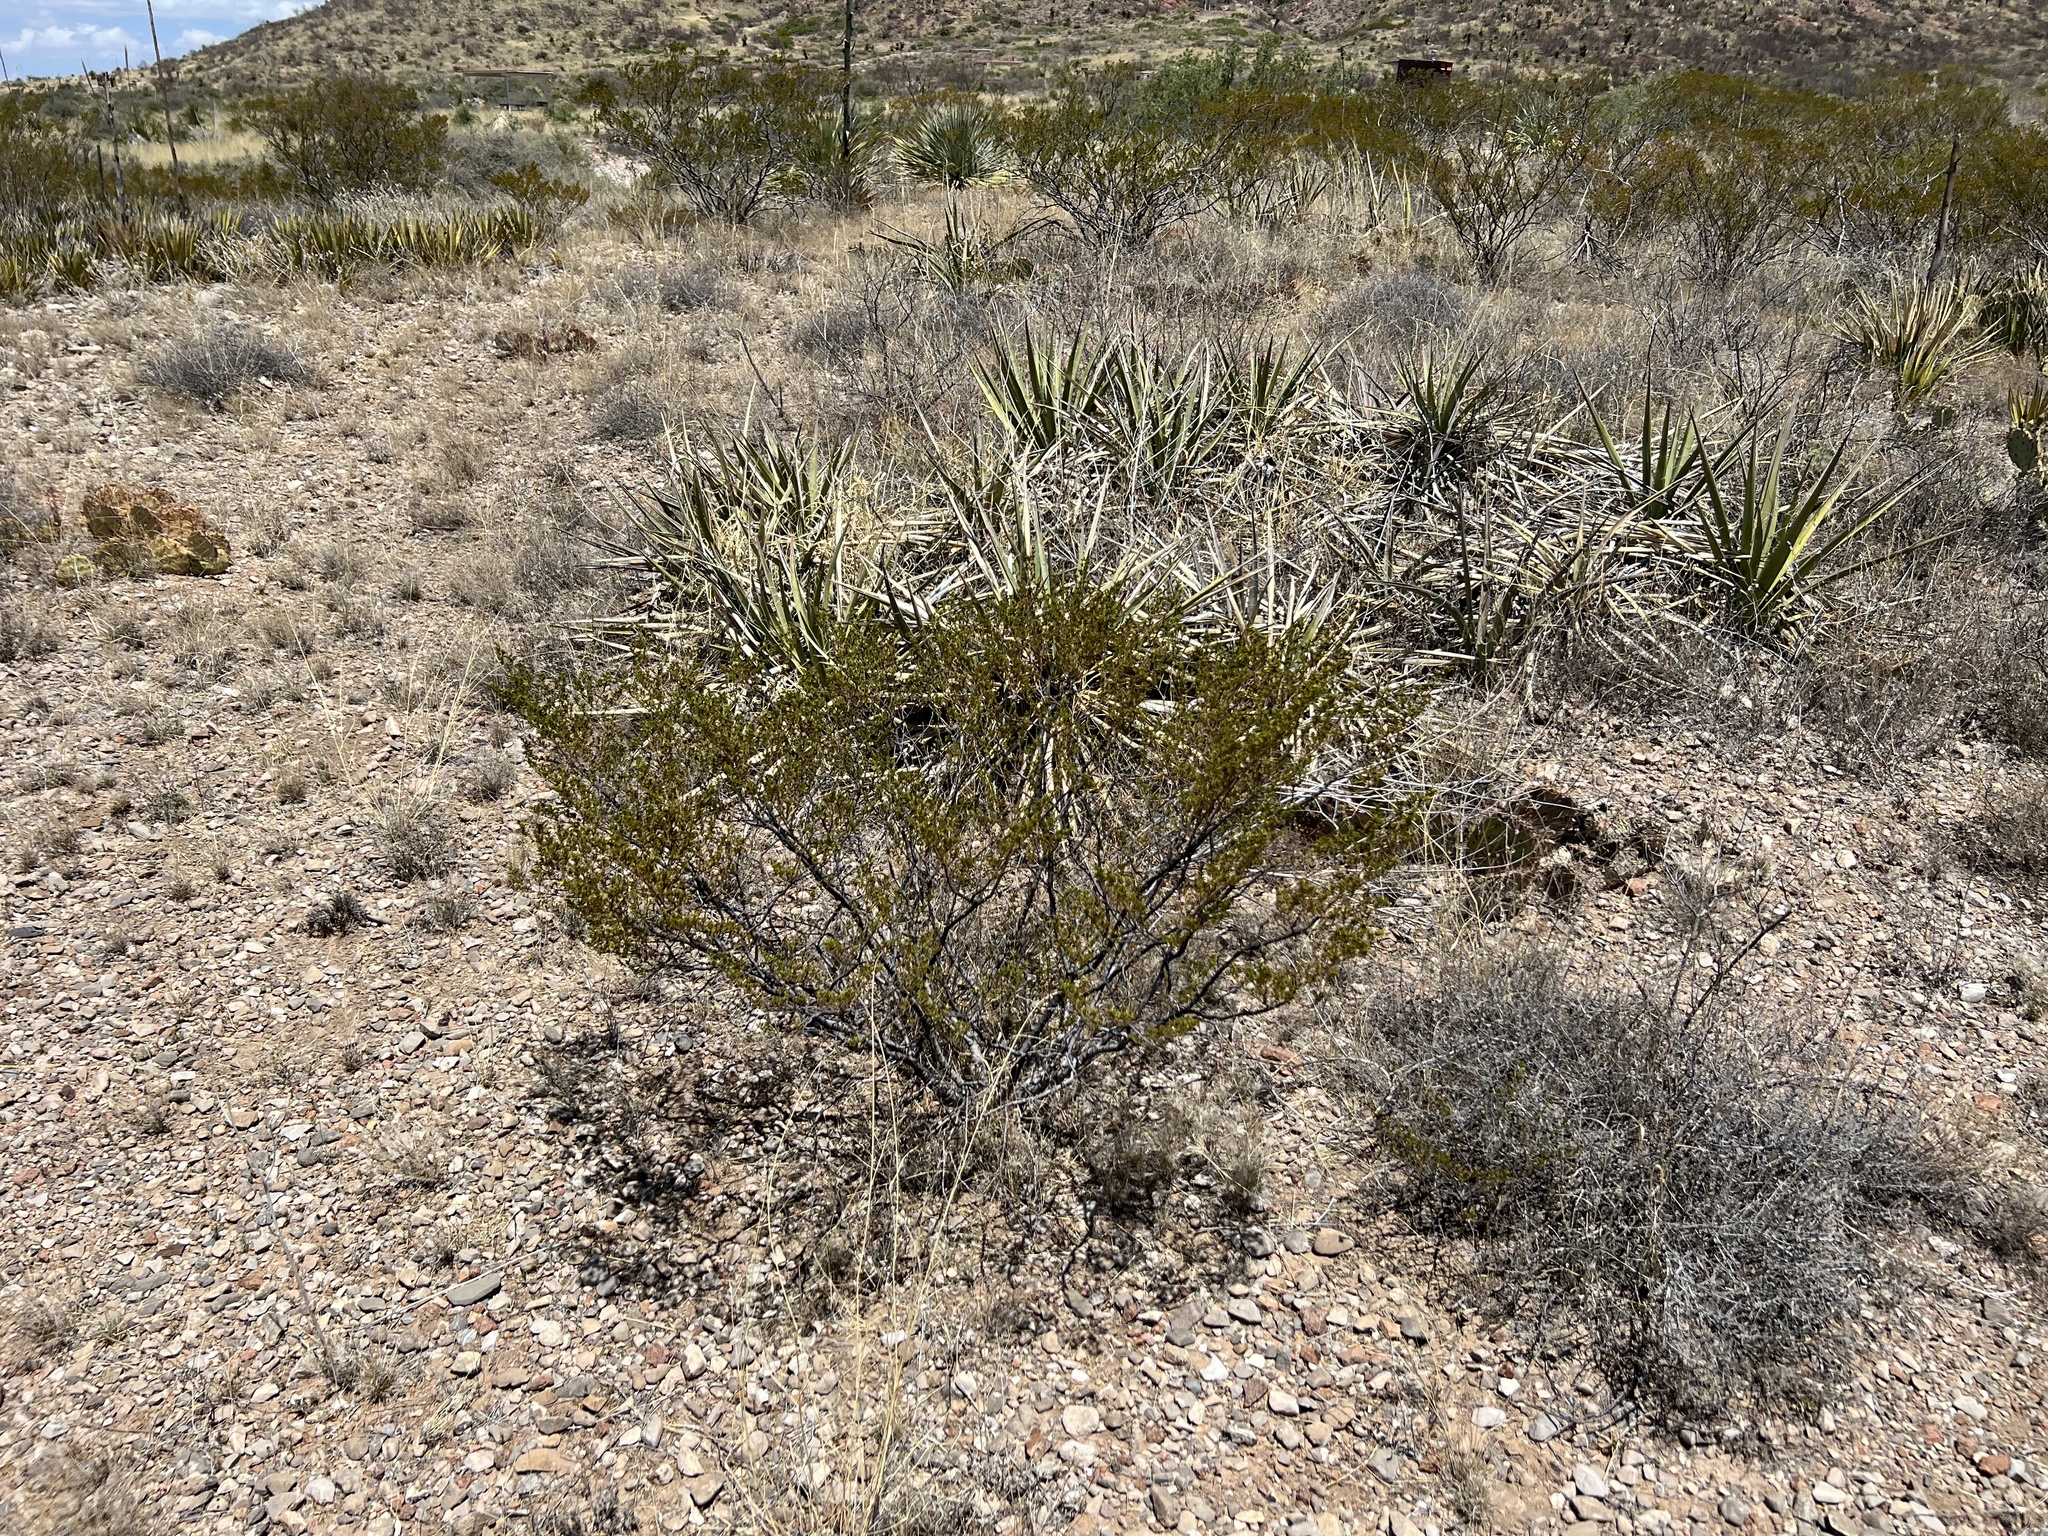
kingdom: Plantae
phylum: Tracheophyta
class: Magnoliopsida
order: Zygophyllales
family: Zygophyllaceae
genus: Larrea
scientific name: Larrea tridentata
